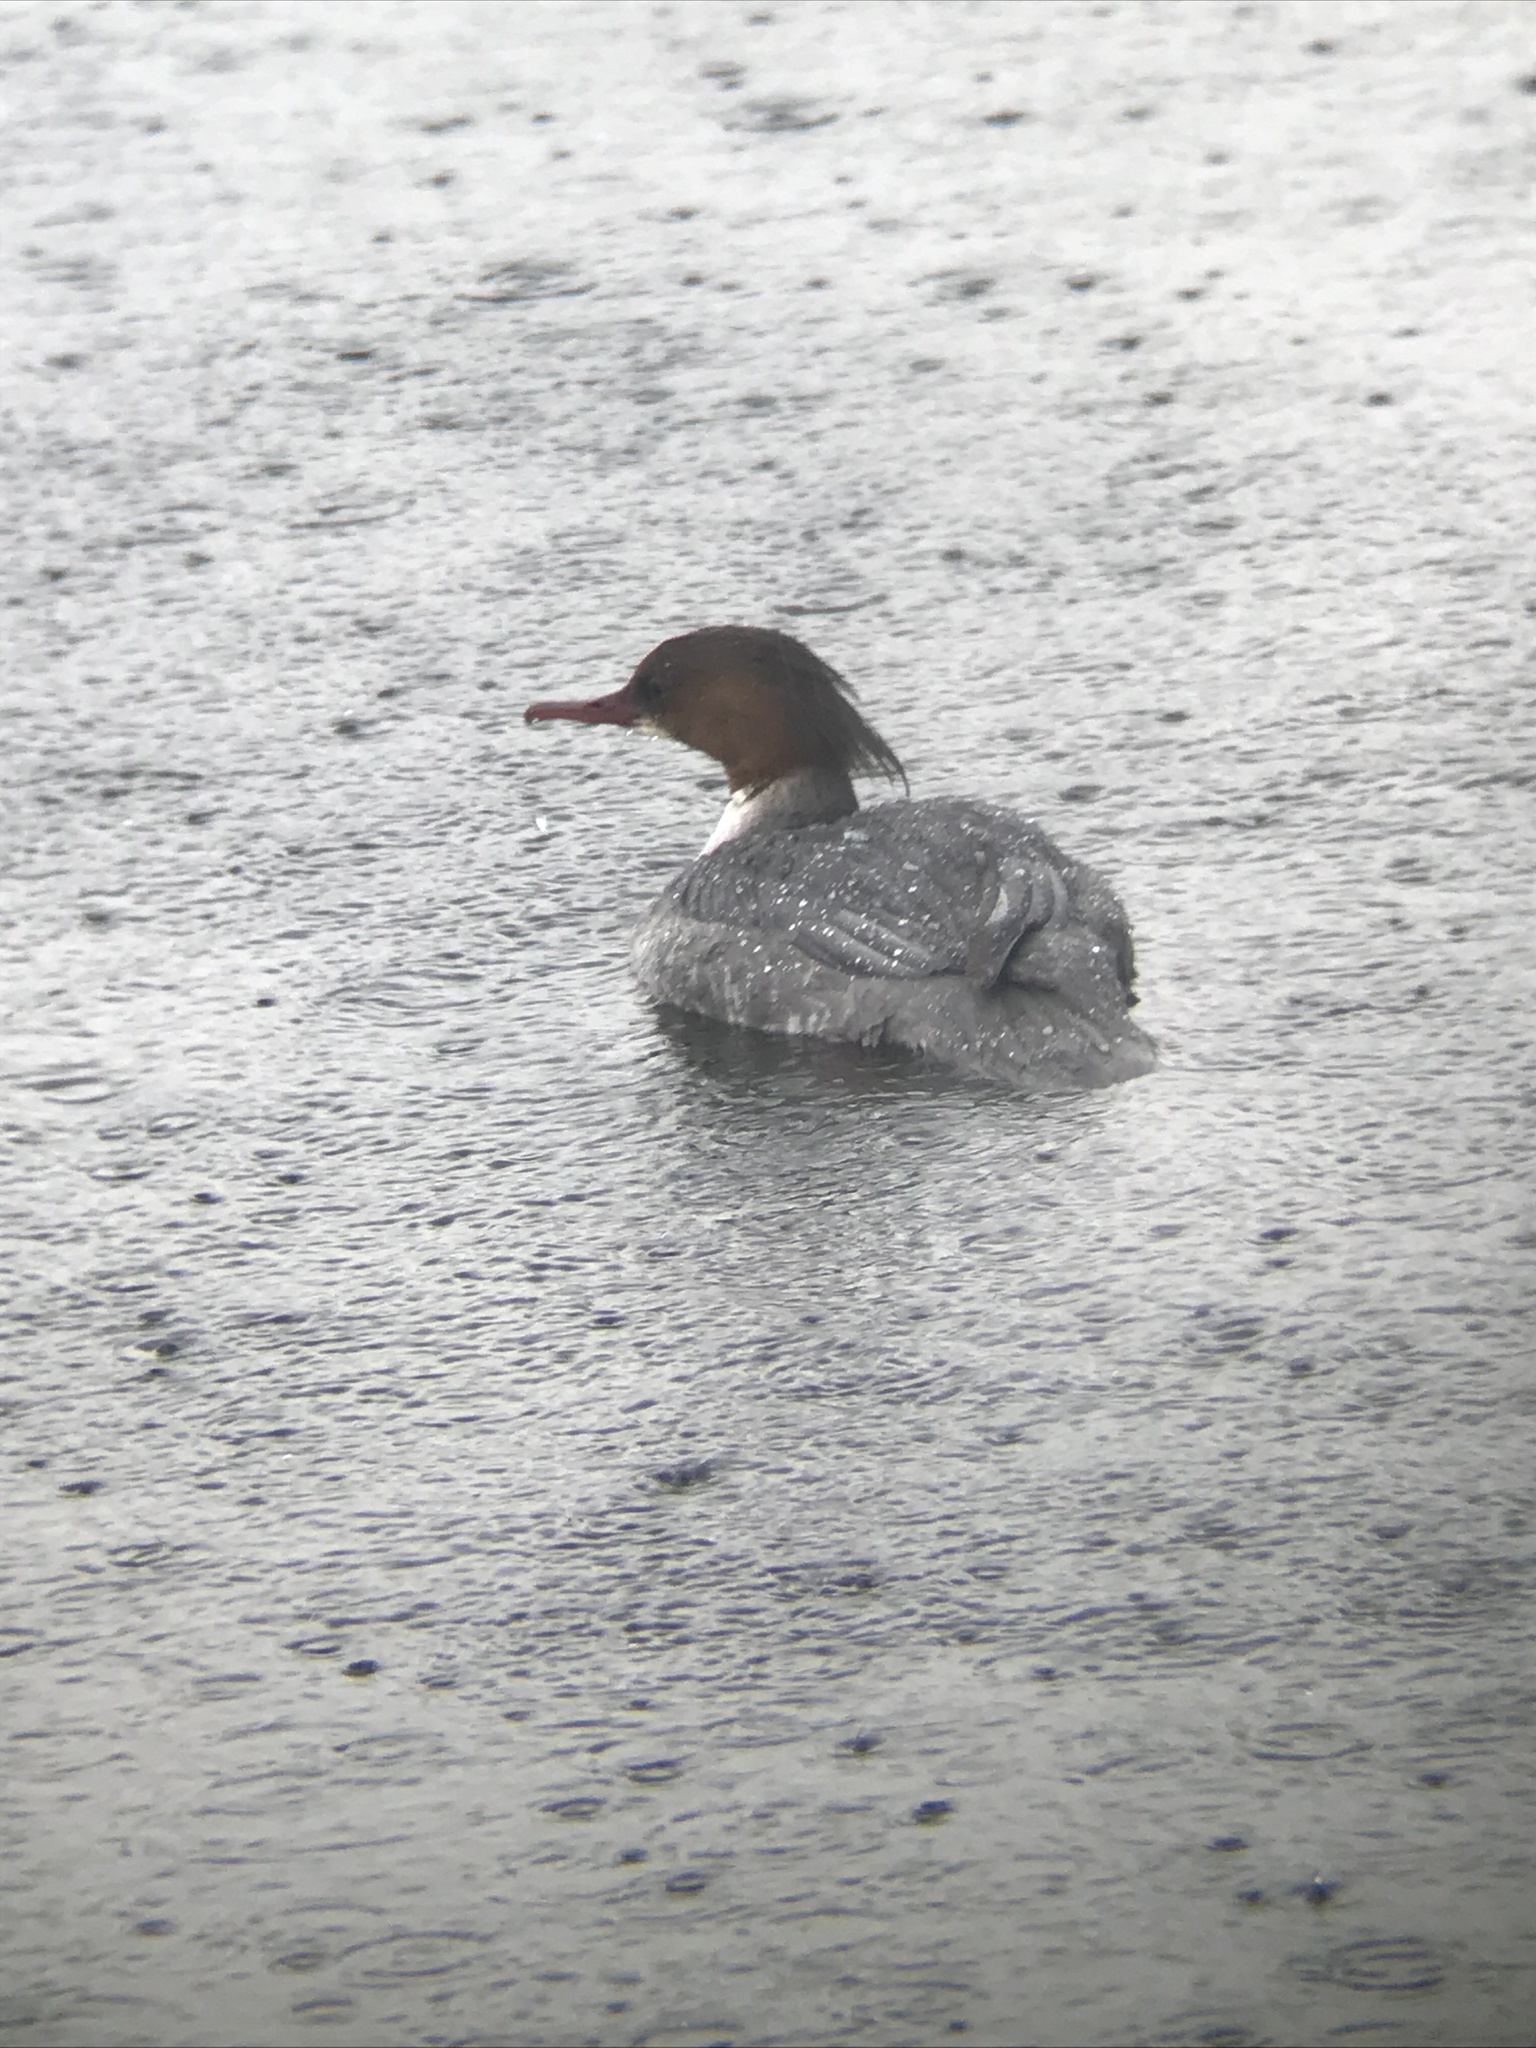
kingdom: Animalia
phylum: Chordata
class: Aves
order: Anseriformes
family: Anatidae
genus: Mergus
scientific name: Mergus merganser
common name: Common merganser
